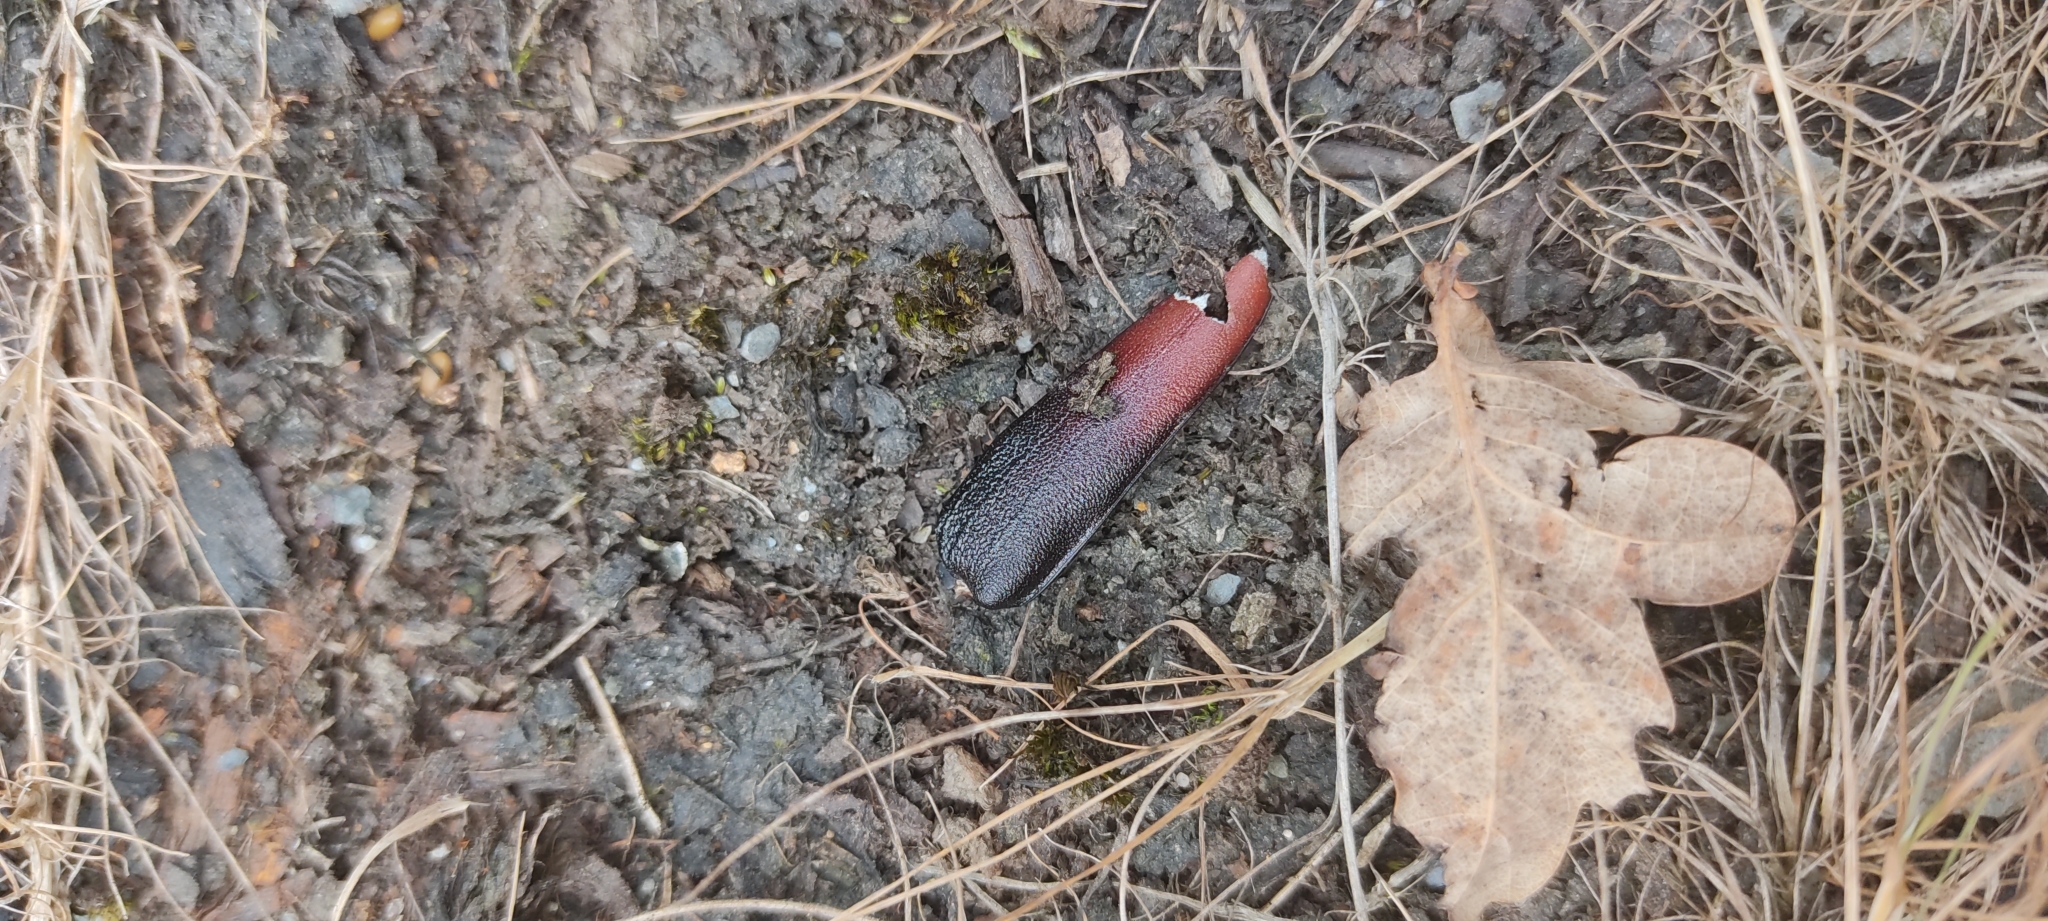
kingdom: Animalia
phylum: Arthropoda
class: Insecta
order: Coleoptera
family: Cerambycidae
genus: Cerambyx
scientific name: Cerambyx cerdo
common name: Cerambyx longicorn
